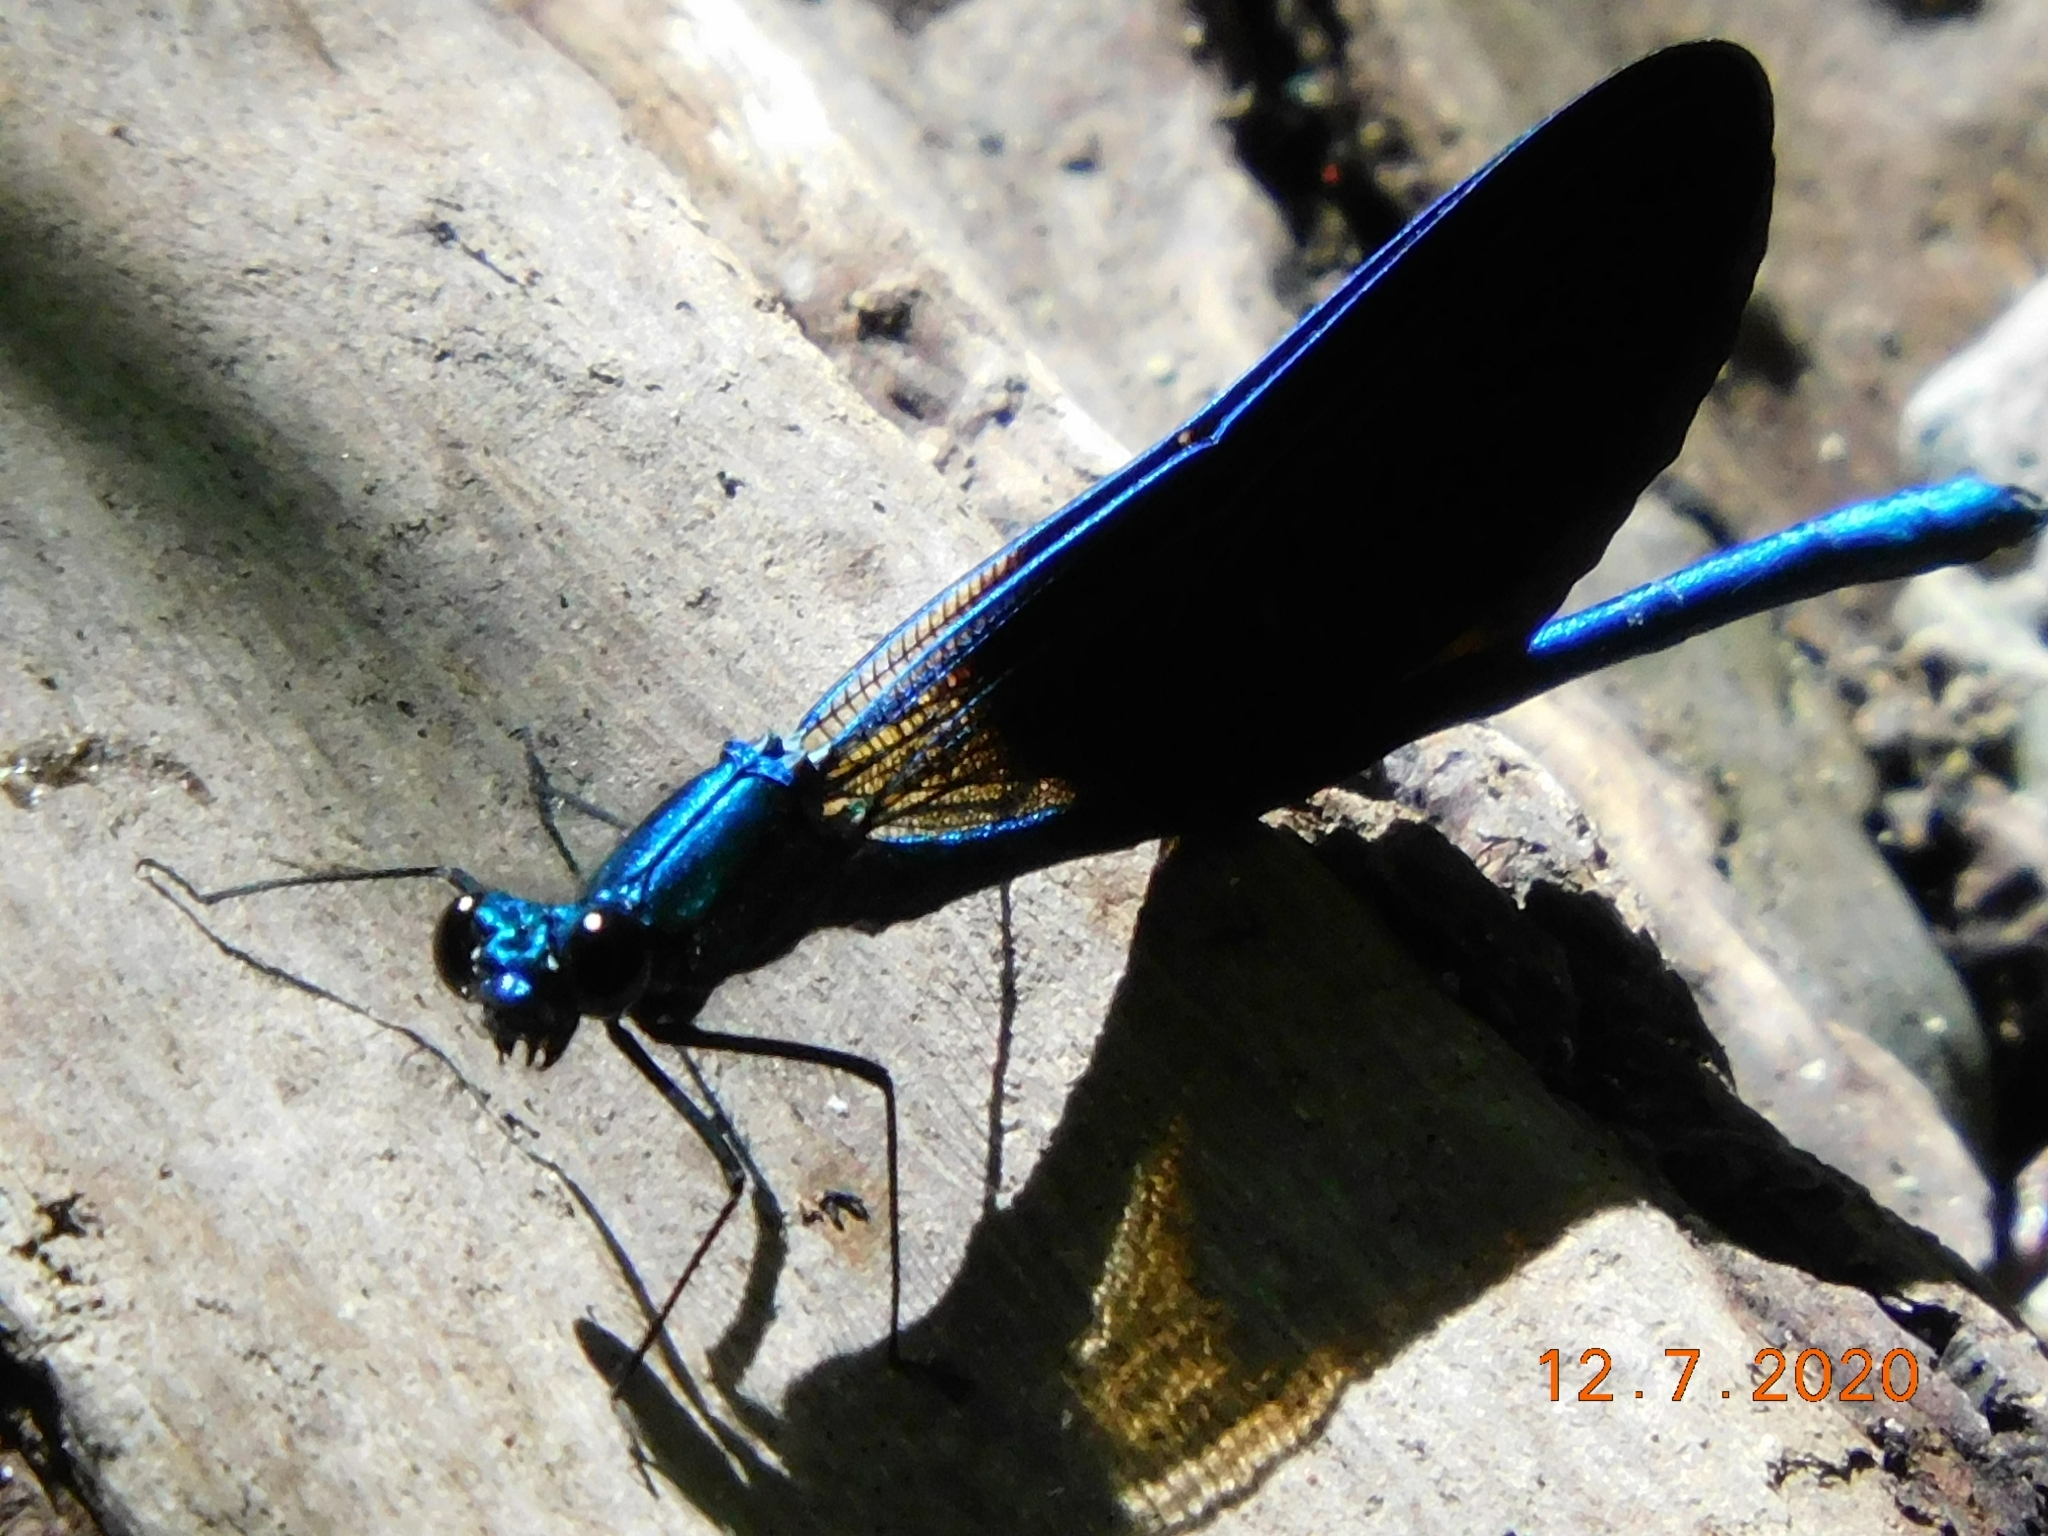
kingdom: Animalia
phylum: Arthropoda
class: Insecta
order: Odonata
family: Calopterygidae
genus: Calopteryx
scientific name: Calopteryx virgo
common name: Beautiful demoiselle
